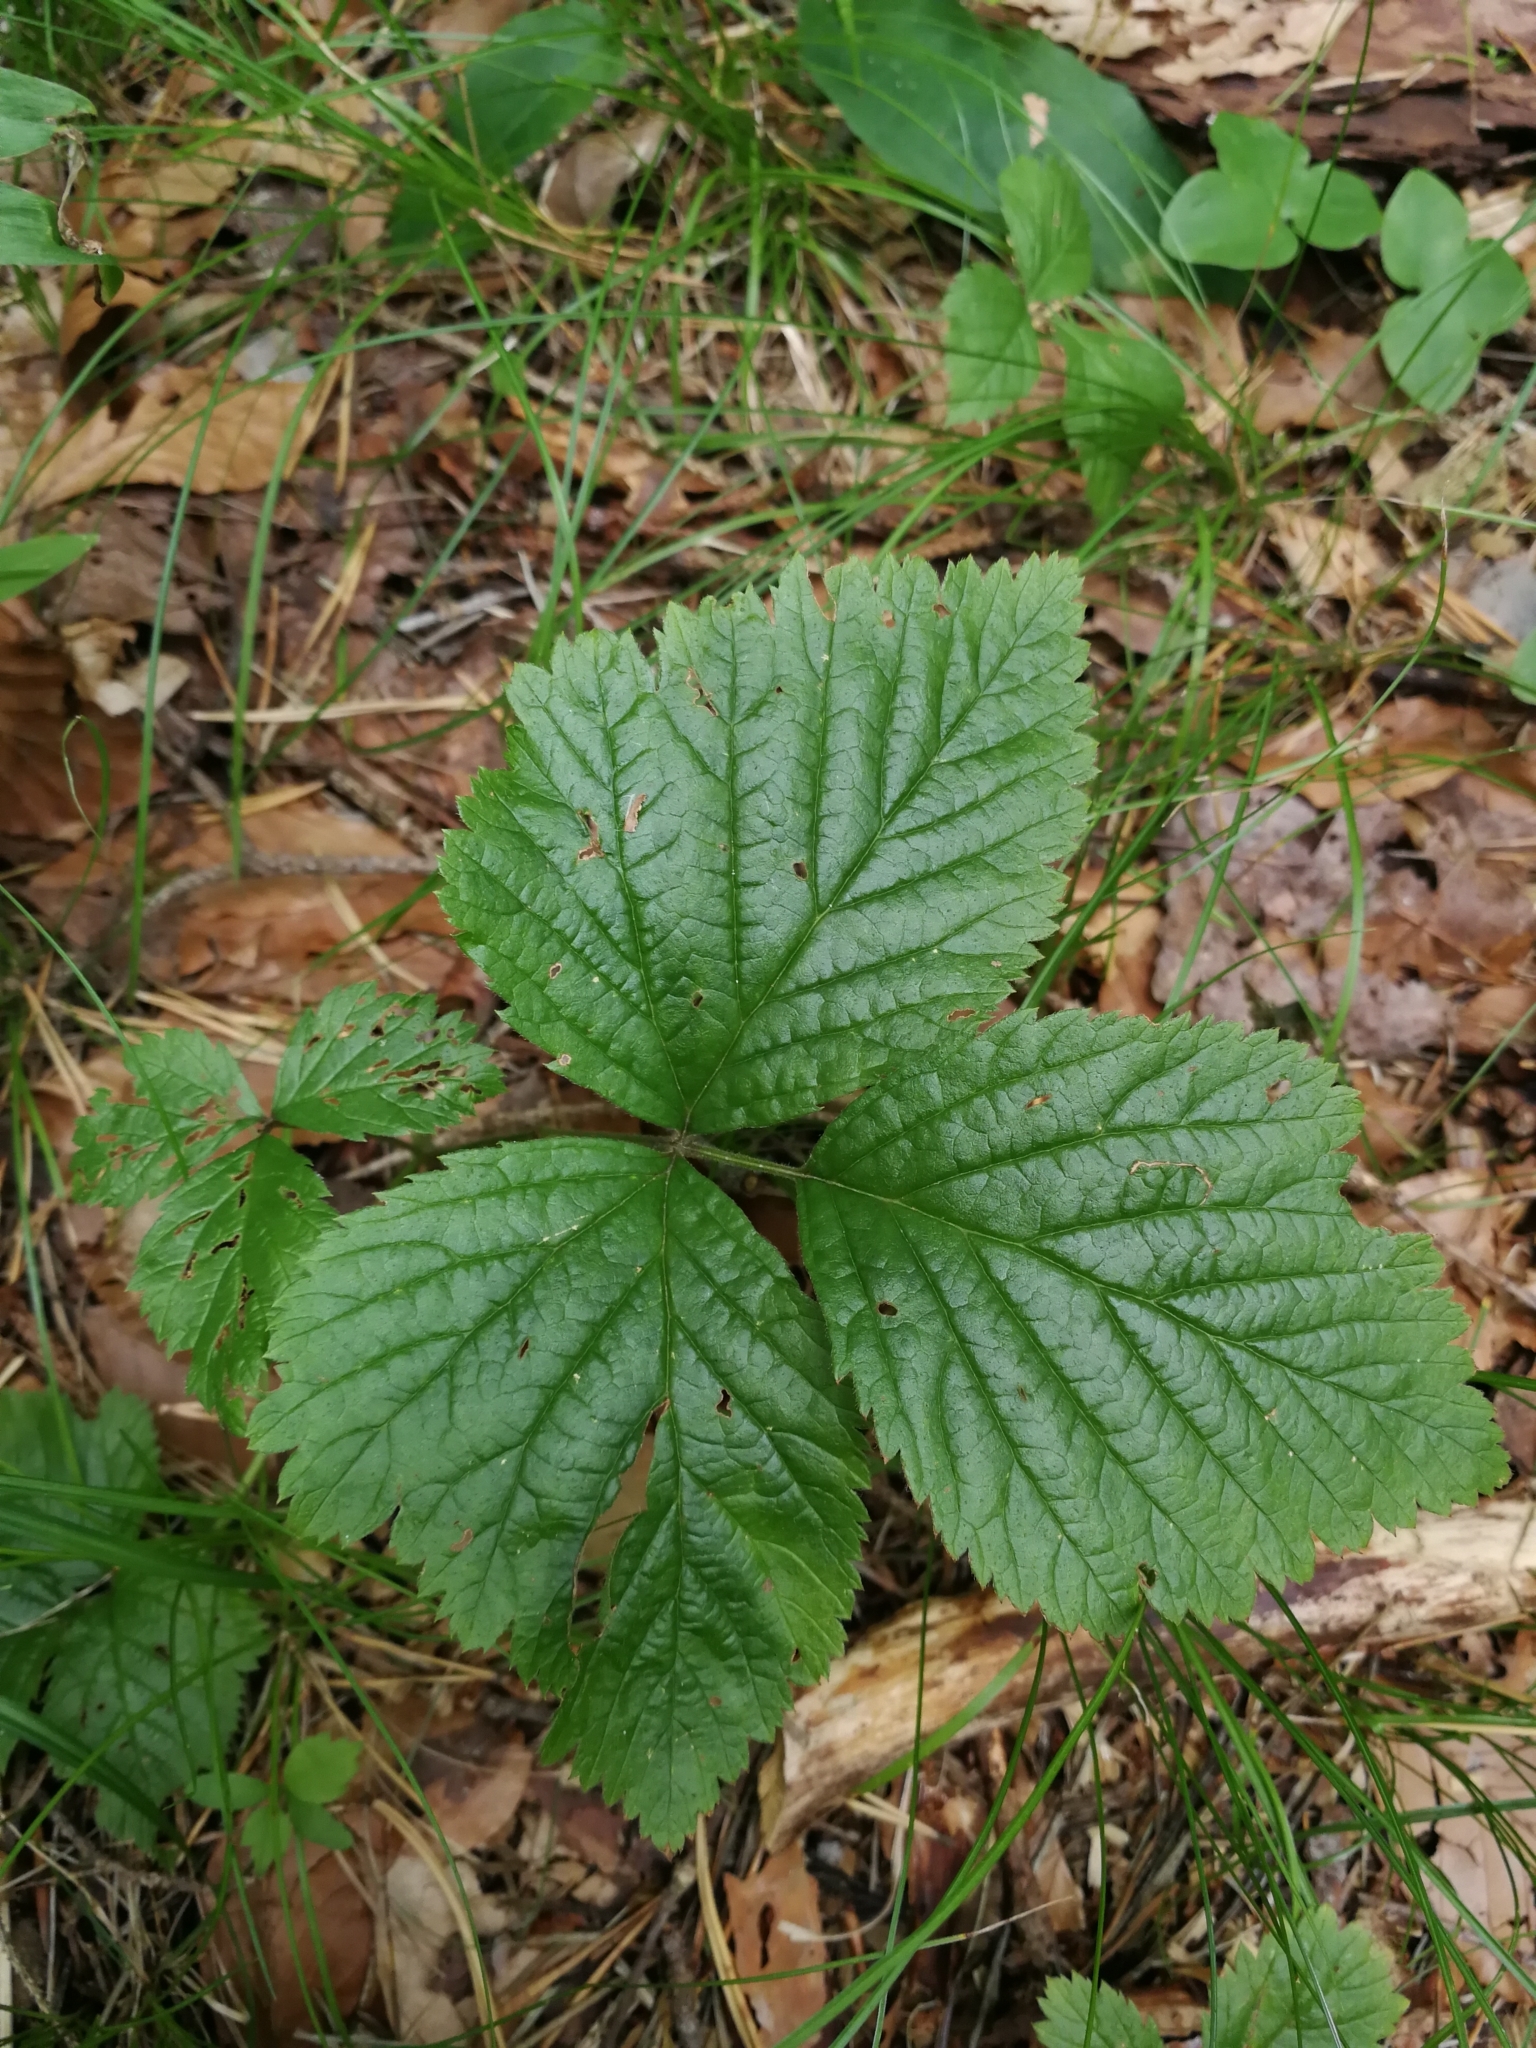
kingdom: Plantae
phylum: Tracheophyta
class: Magnoliopsida
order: Rosales
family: Rosaceae
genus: Rubus
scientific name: Rubus saxatilis
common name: Stone bramble
